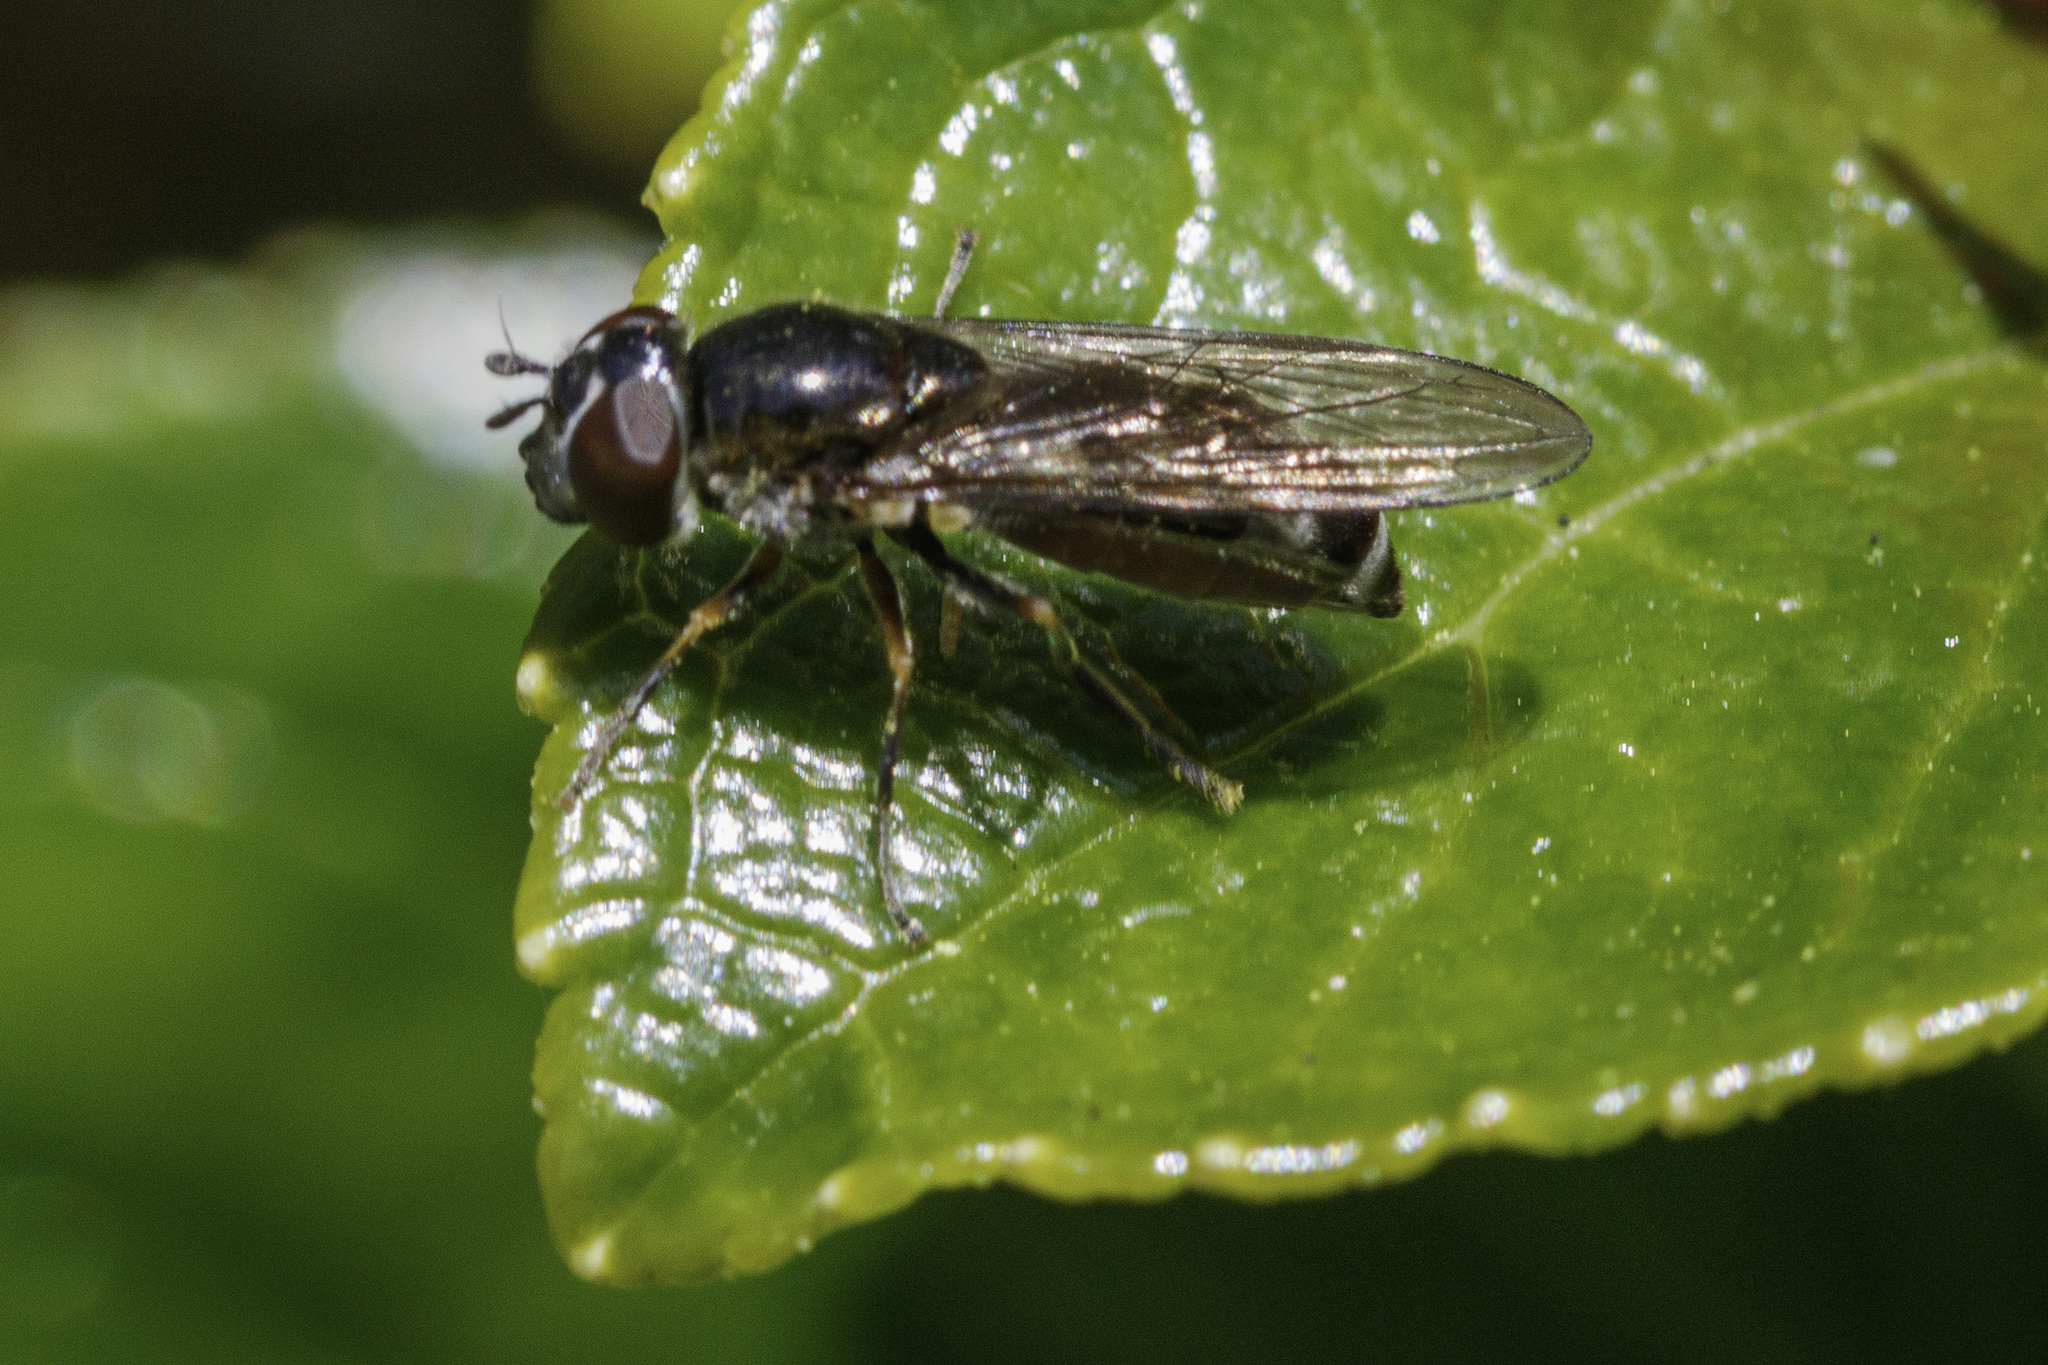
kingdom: Animalia
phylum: Arthropoda
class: Insecta
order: Diptera
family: Syrphidae
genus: Platycheirus
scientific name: Platycheirus albimanus
